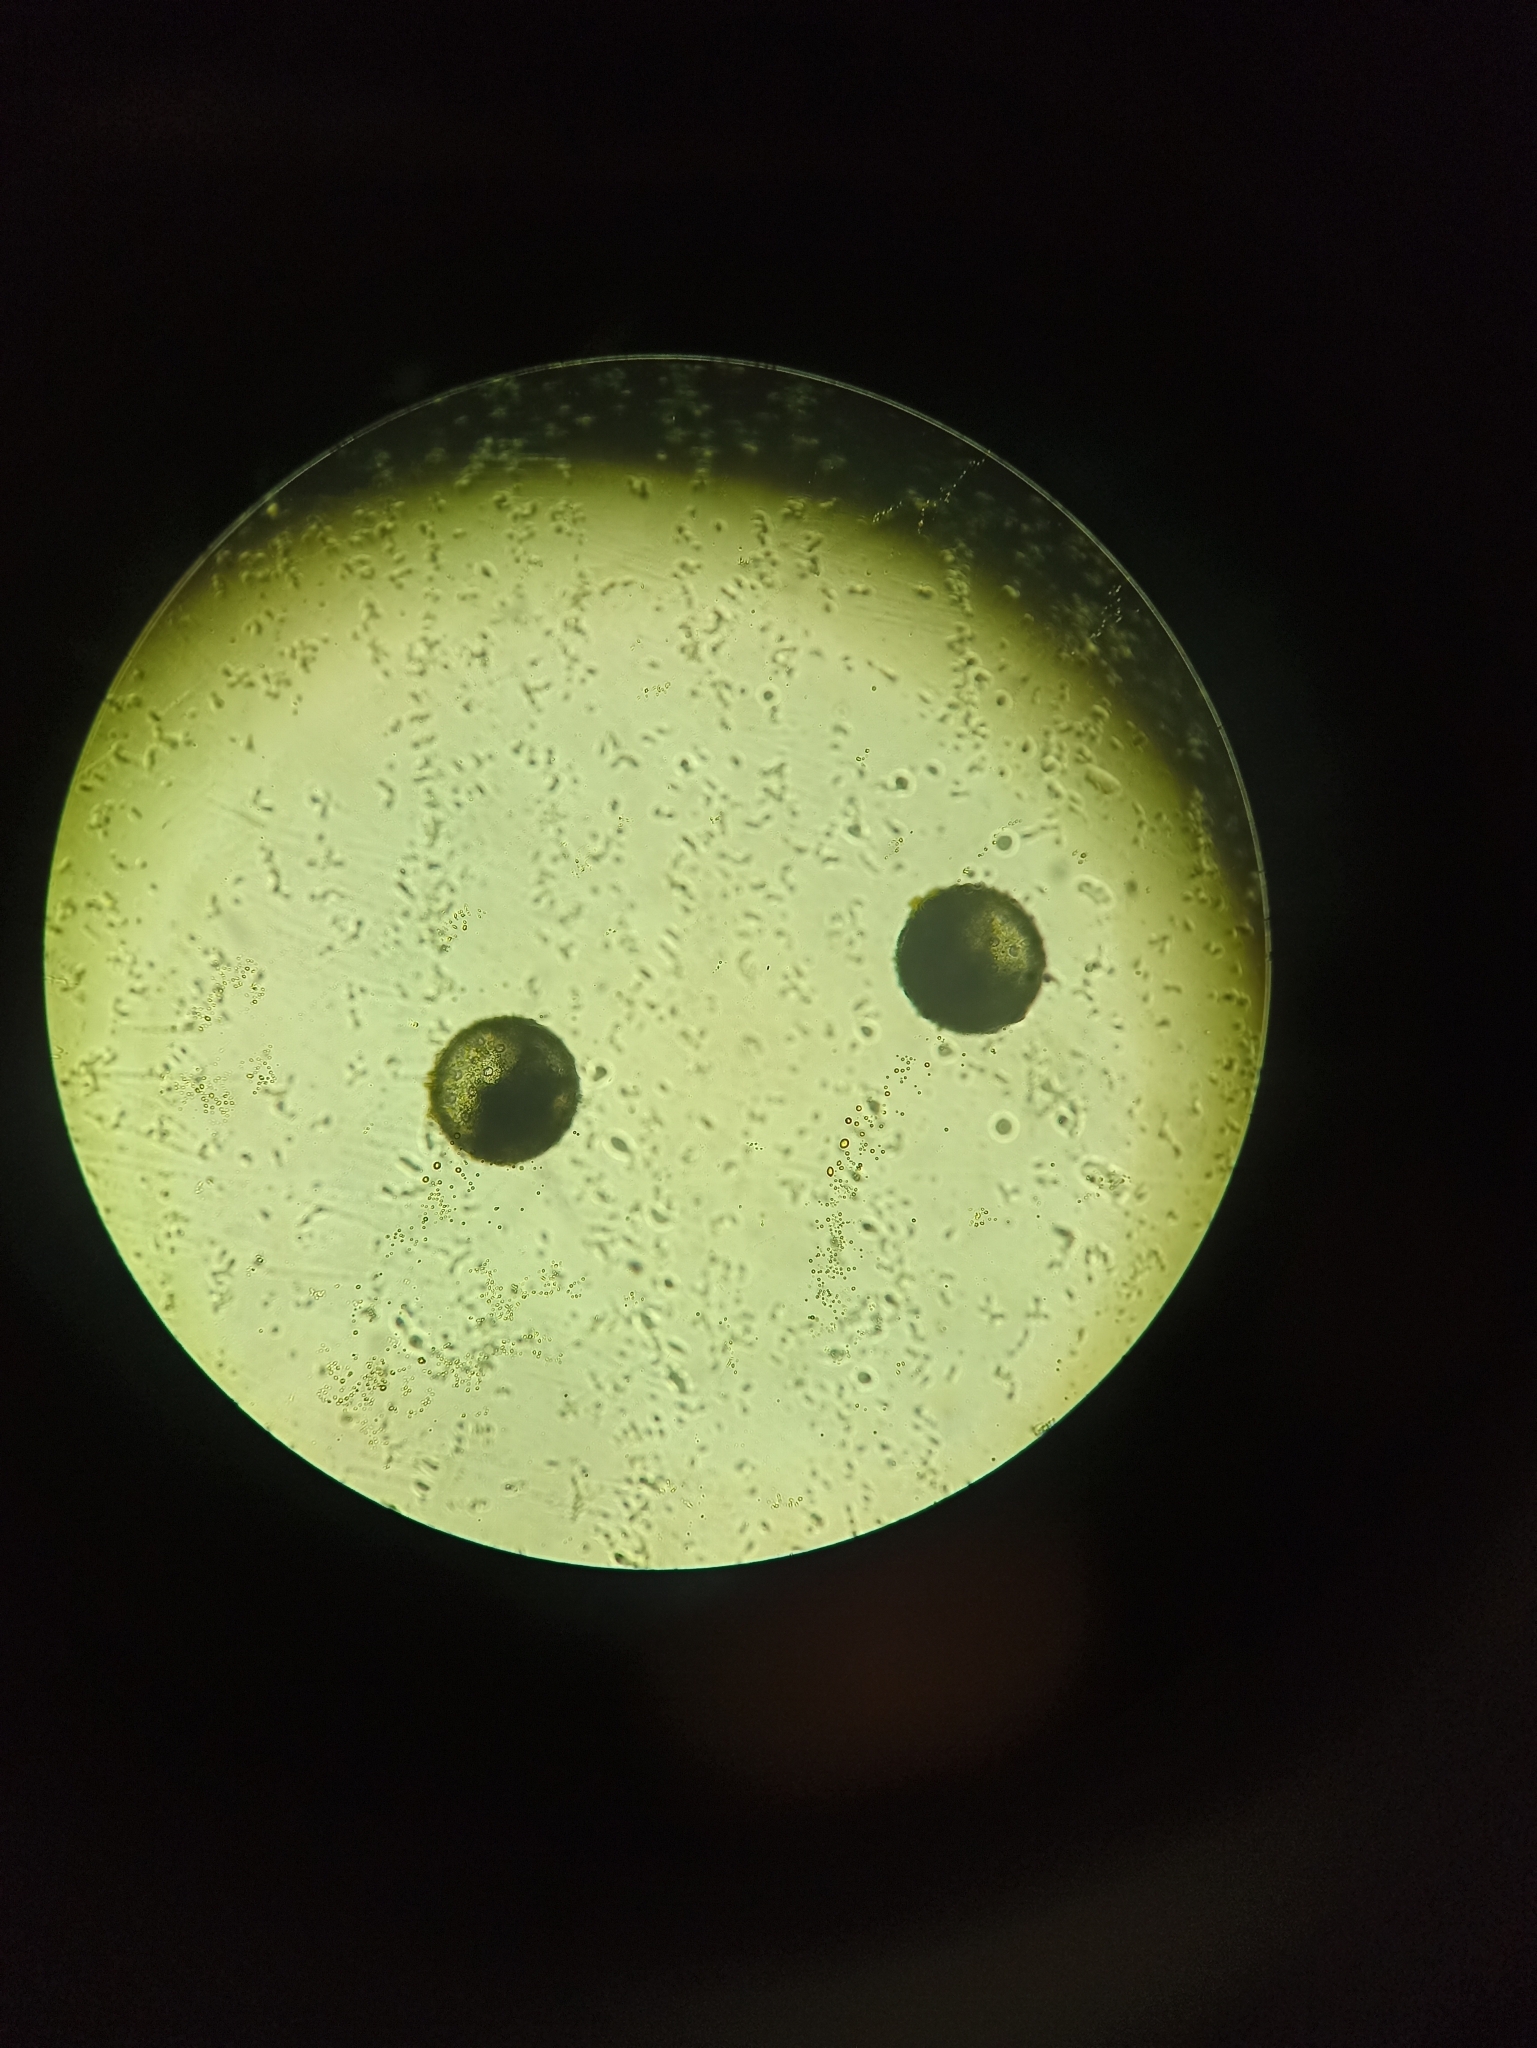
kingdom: Plantae
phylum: Tracheophyta
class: Magnoliopsida
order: Caryophyllales
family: Nyctaginaceae
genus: Mirabilis
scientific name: Mirabilis jalapa
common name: Marvel-of-peru
